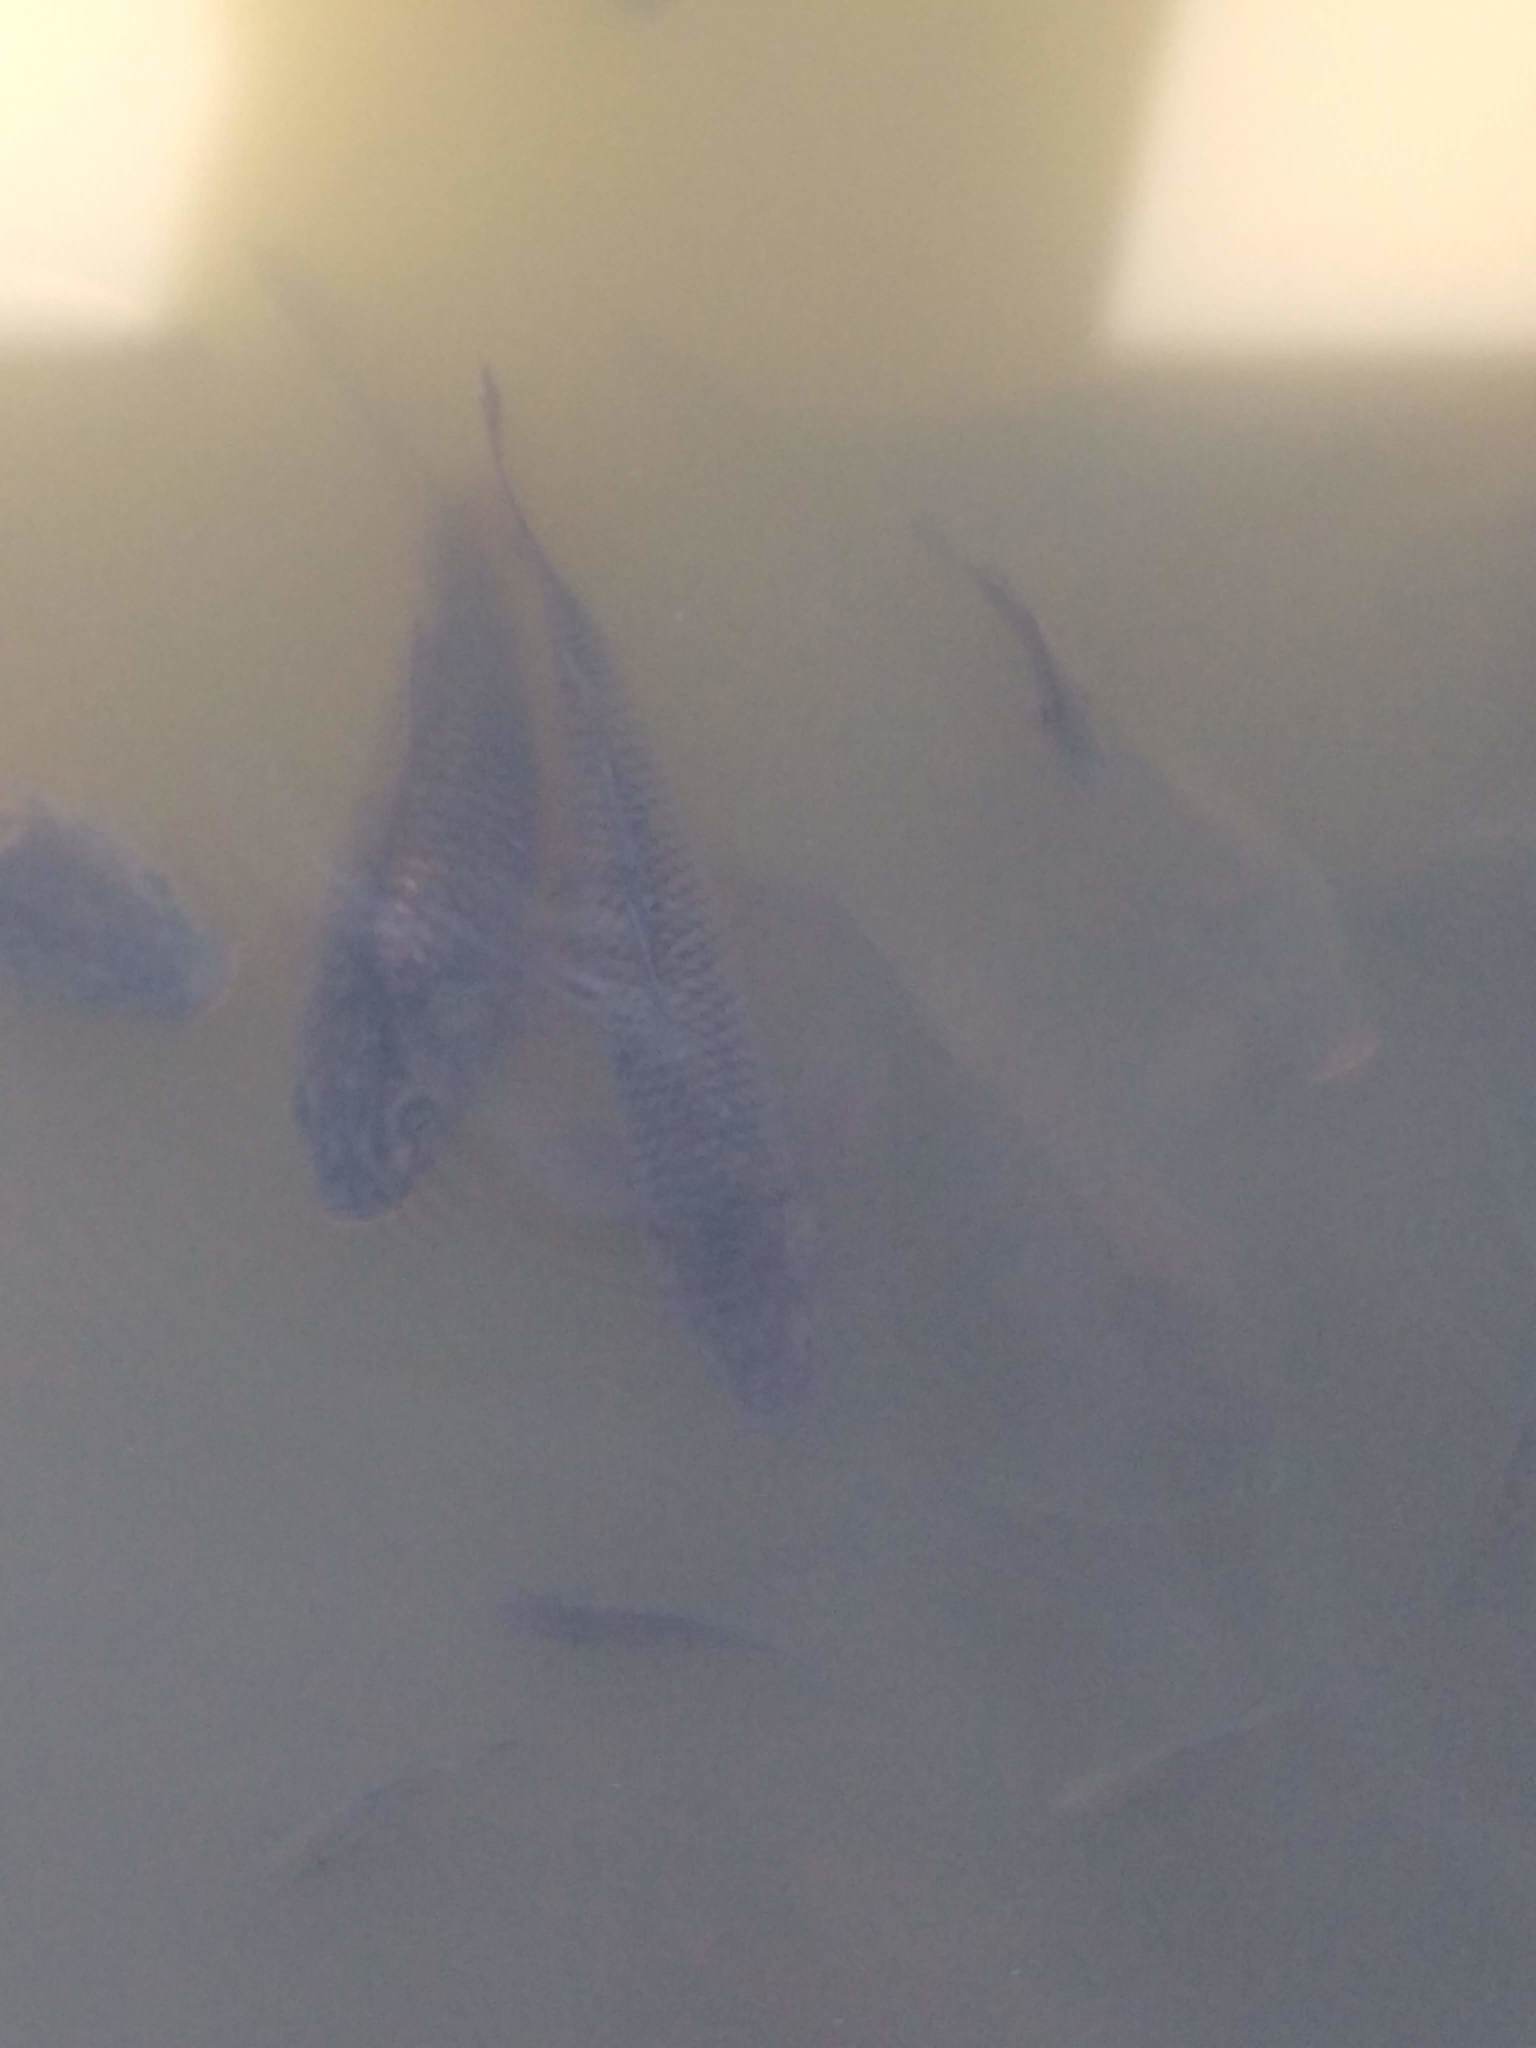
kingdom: Animalia
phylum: Chordata
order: Cypriniformes
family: Cyprinidae
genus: Cyprinus
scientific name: Cyprinus carpio
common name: Common carp
